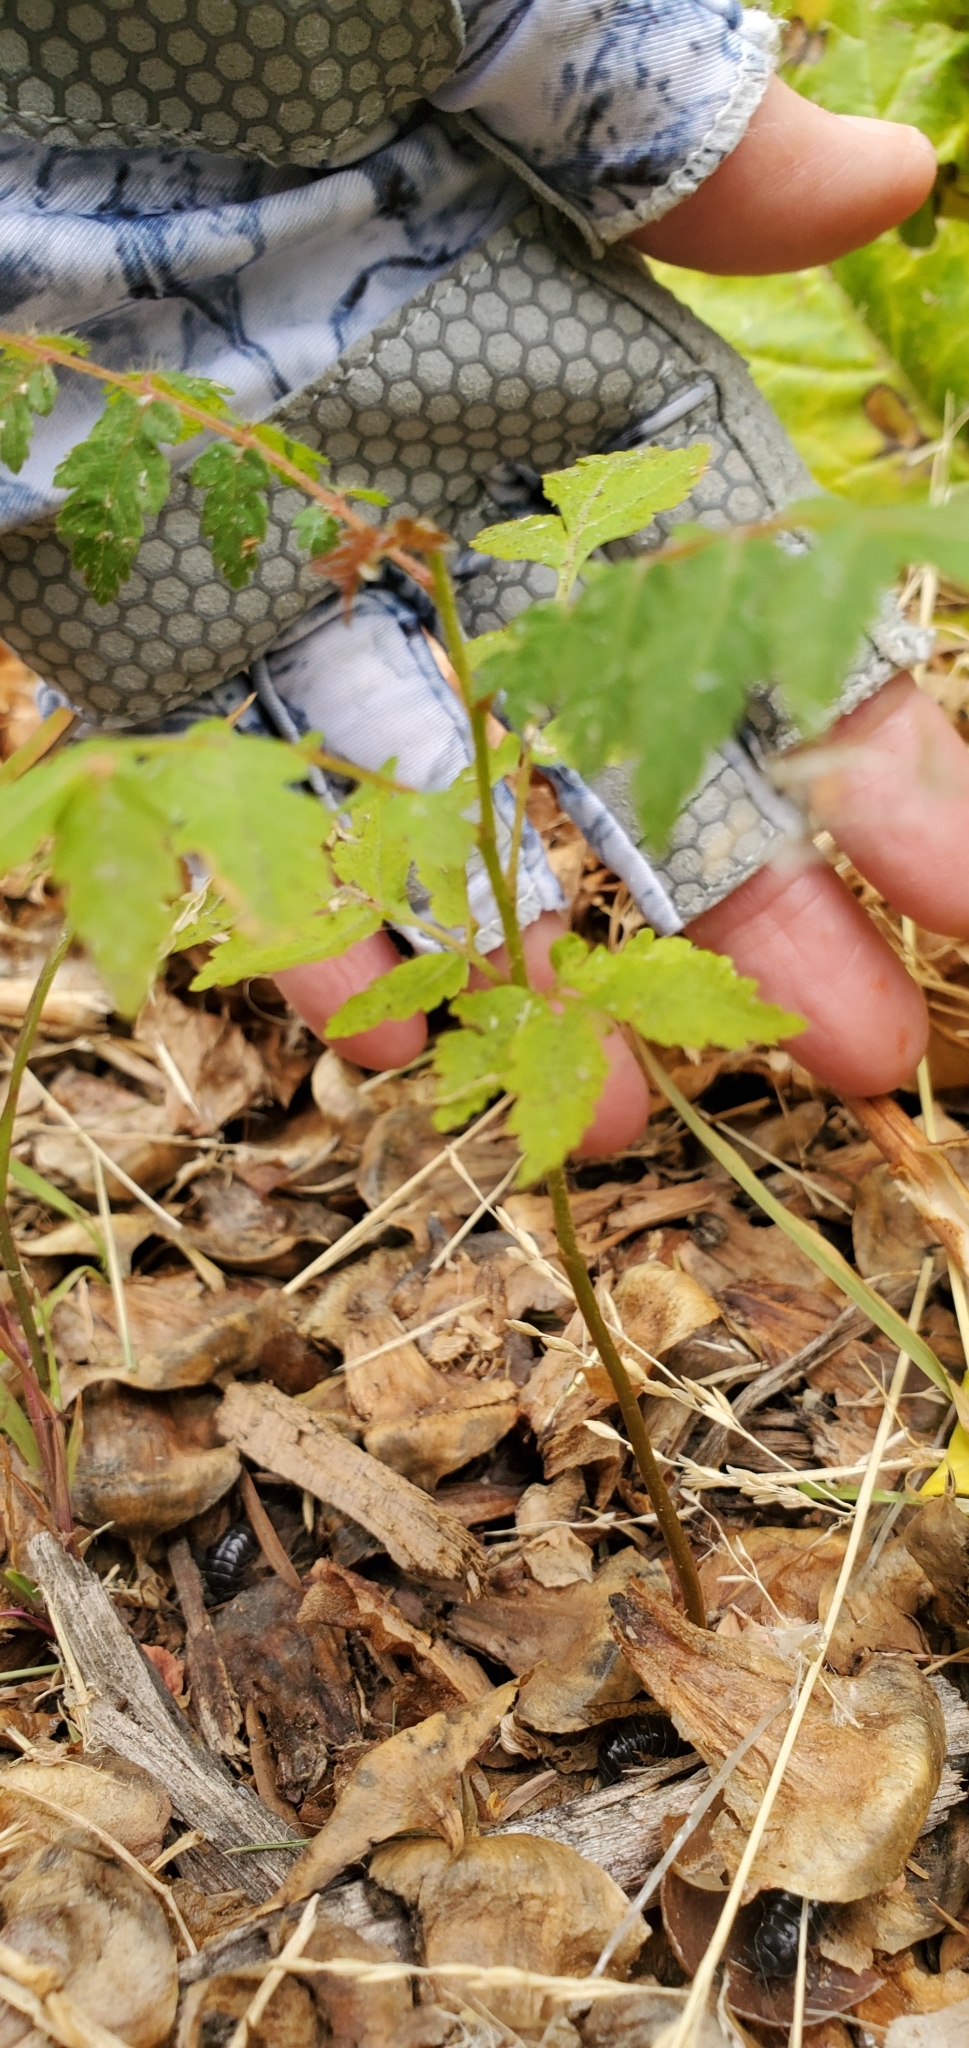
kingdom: Plantae
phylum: Tracheophyta
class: Magnoliopsida
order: Sapindales
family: Sapindaceae
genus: Koelreuteria
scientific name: Koelreuteria
